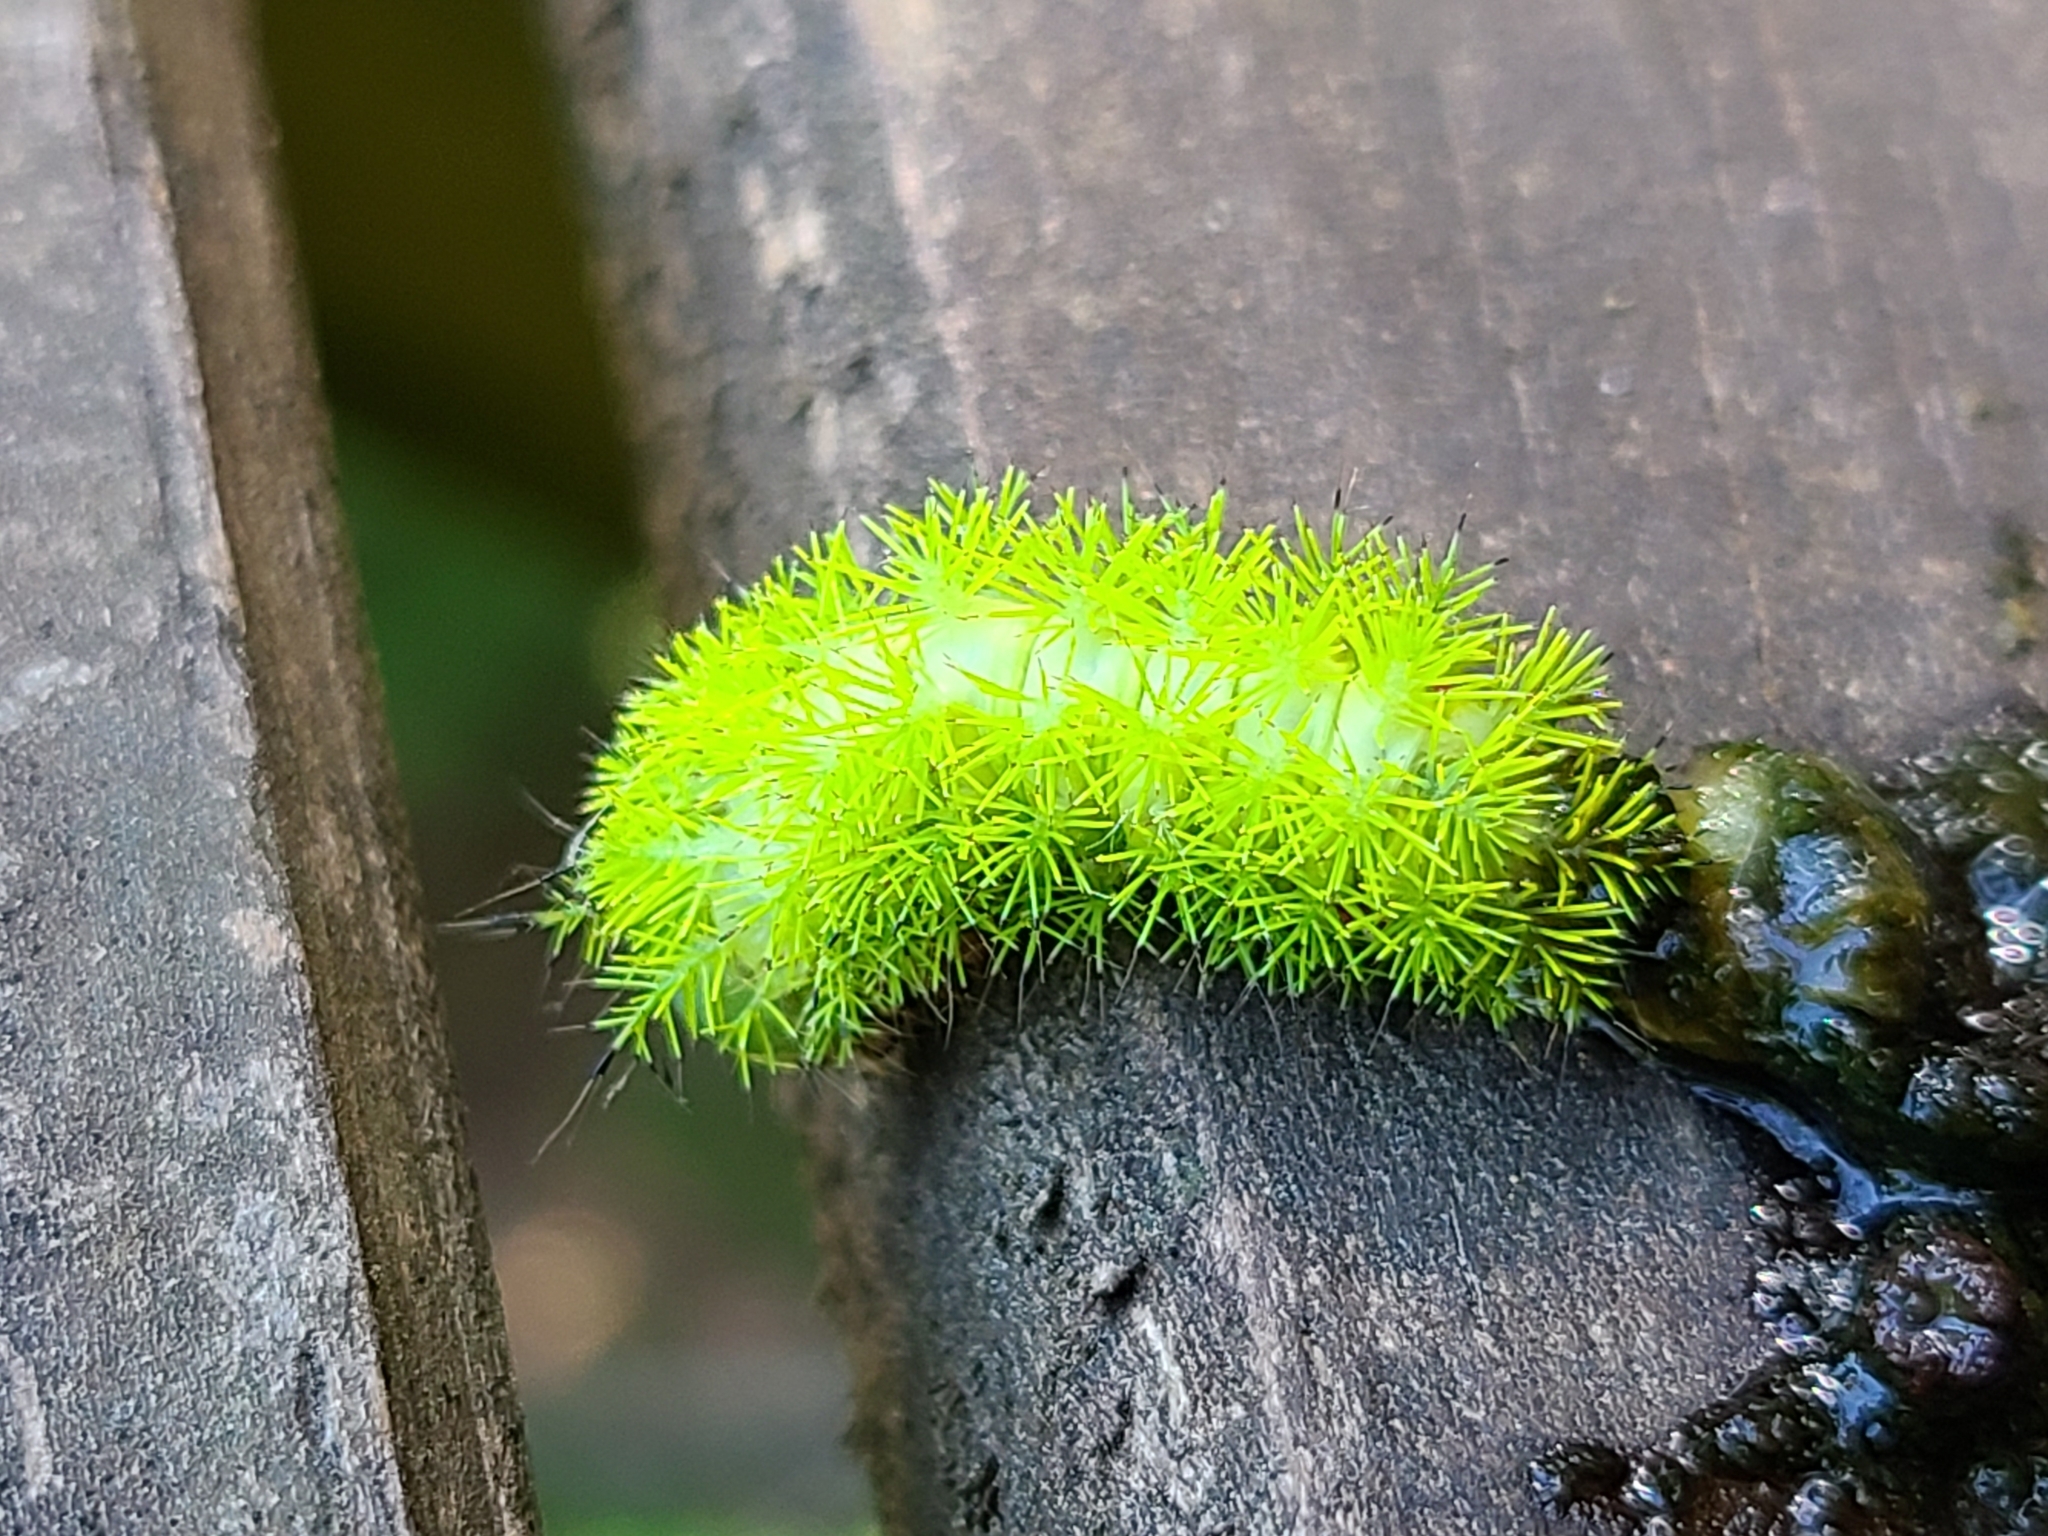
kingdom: Animalia
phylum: Arthropoda
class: Insecta
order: Lepidoptera
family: Saturniidae
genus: Automeris
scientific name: Automeris io
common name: Io moth
